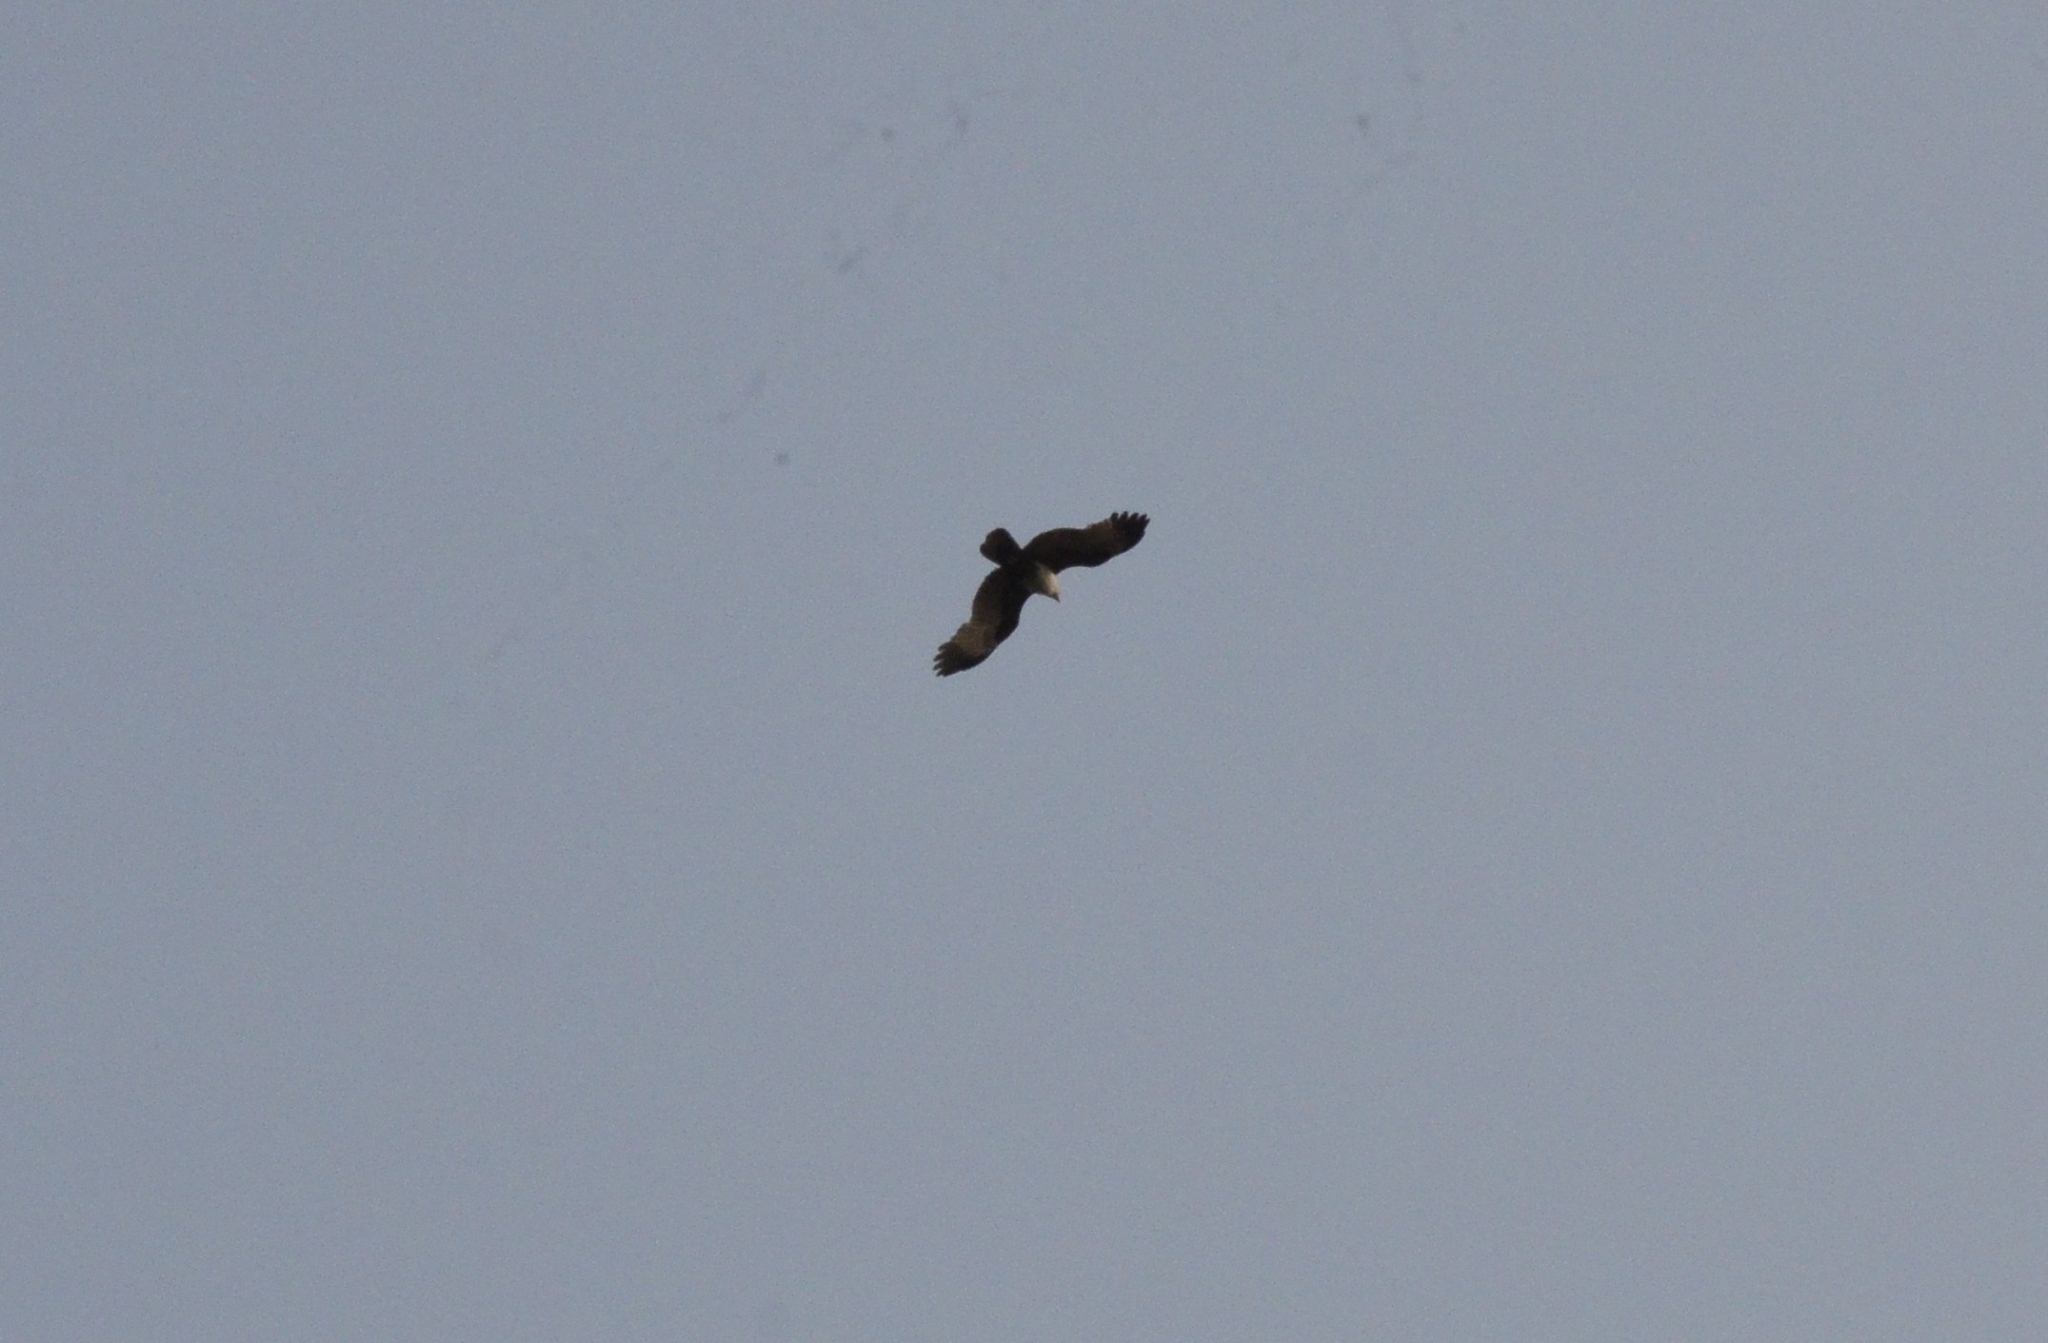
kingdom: Animalia
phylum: Chordata
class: Aves
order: Accipitriformes
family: Accipitridae
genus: Haliastur
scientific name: Haliastur indus
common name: Brahminy kite
